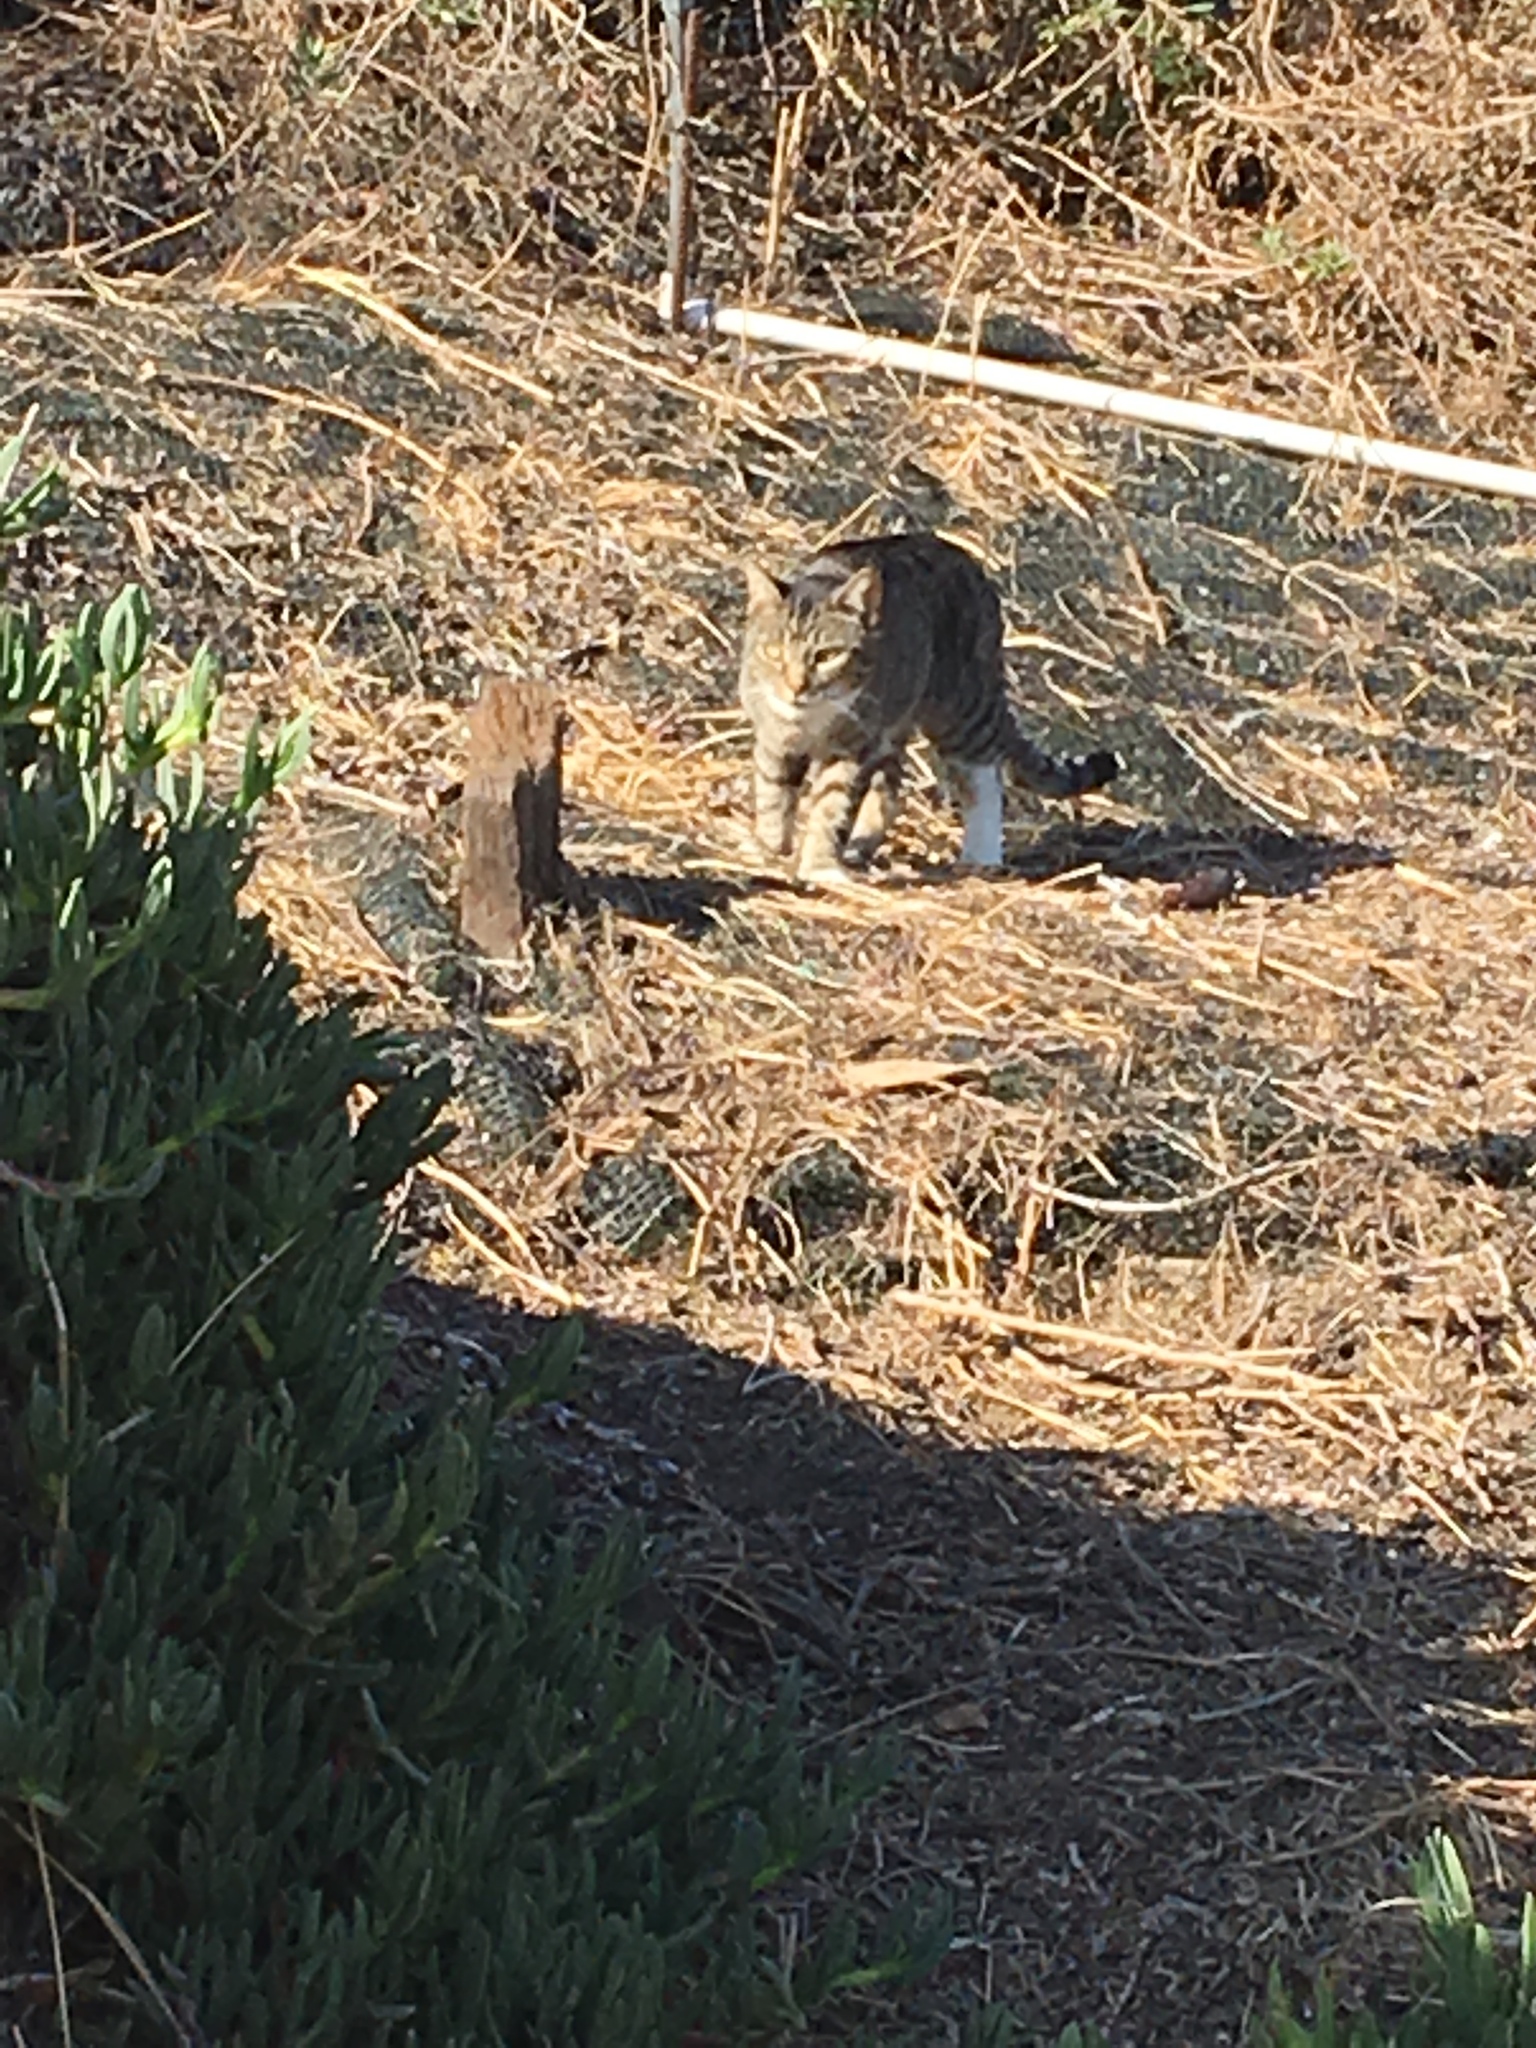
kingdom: Animalia
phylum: Chordata
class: Mammalia
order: Carnivora
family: Felidae
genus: Felis
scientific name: Felis catus
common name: Domestic cat
